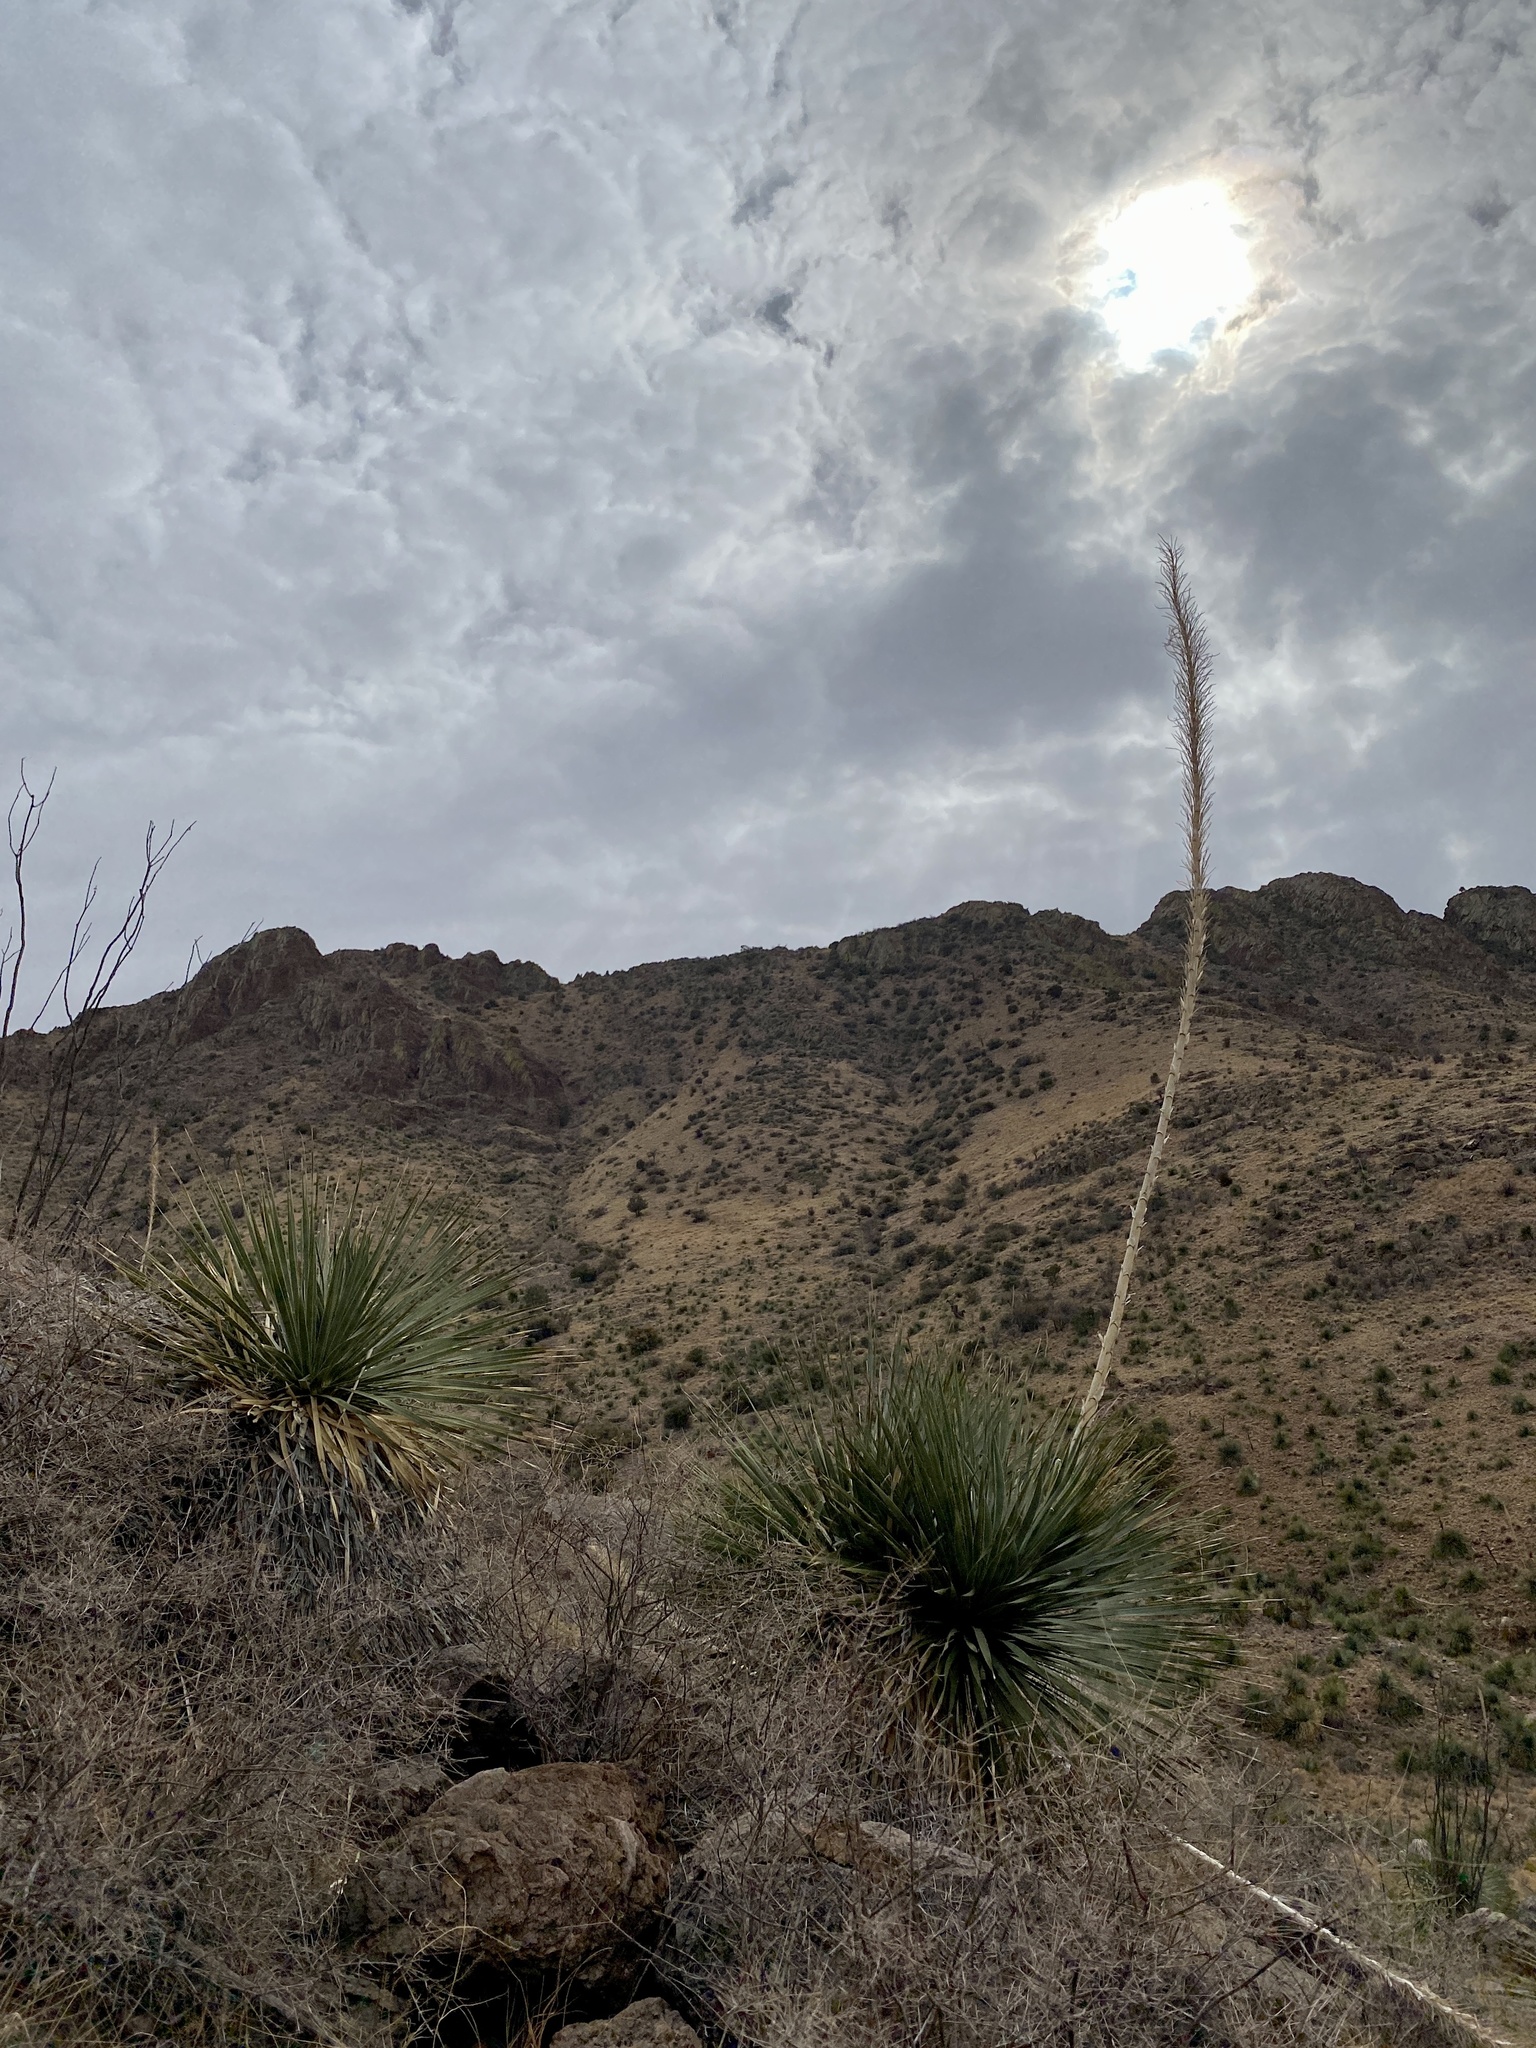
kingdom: Plantae
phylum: Tracheophyta
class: Liliopsida
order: Asparagales
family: Asparagaceae
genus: Dasylirion
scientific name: Dasylirion wheeleri
